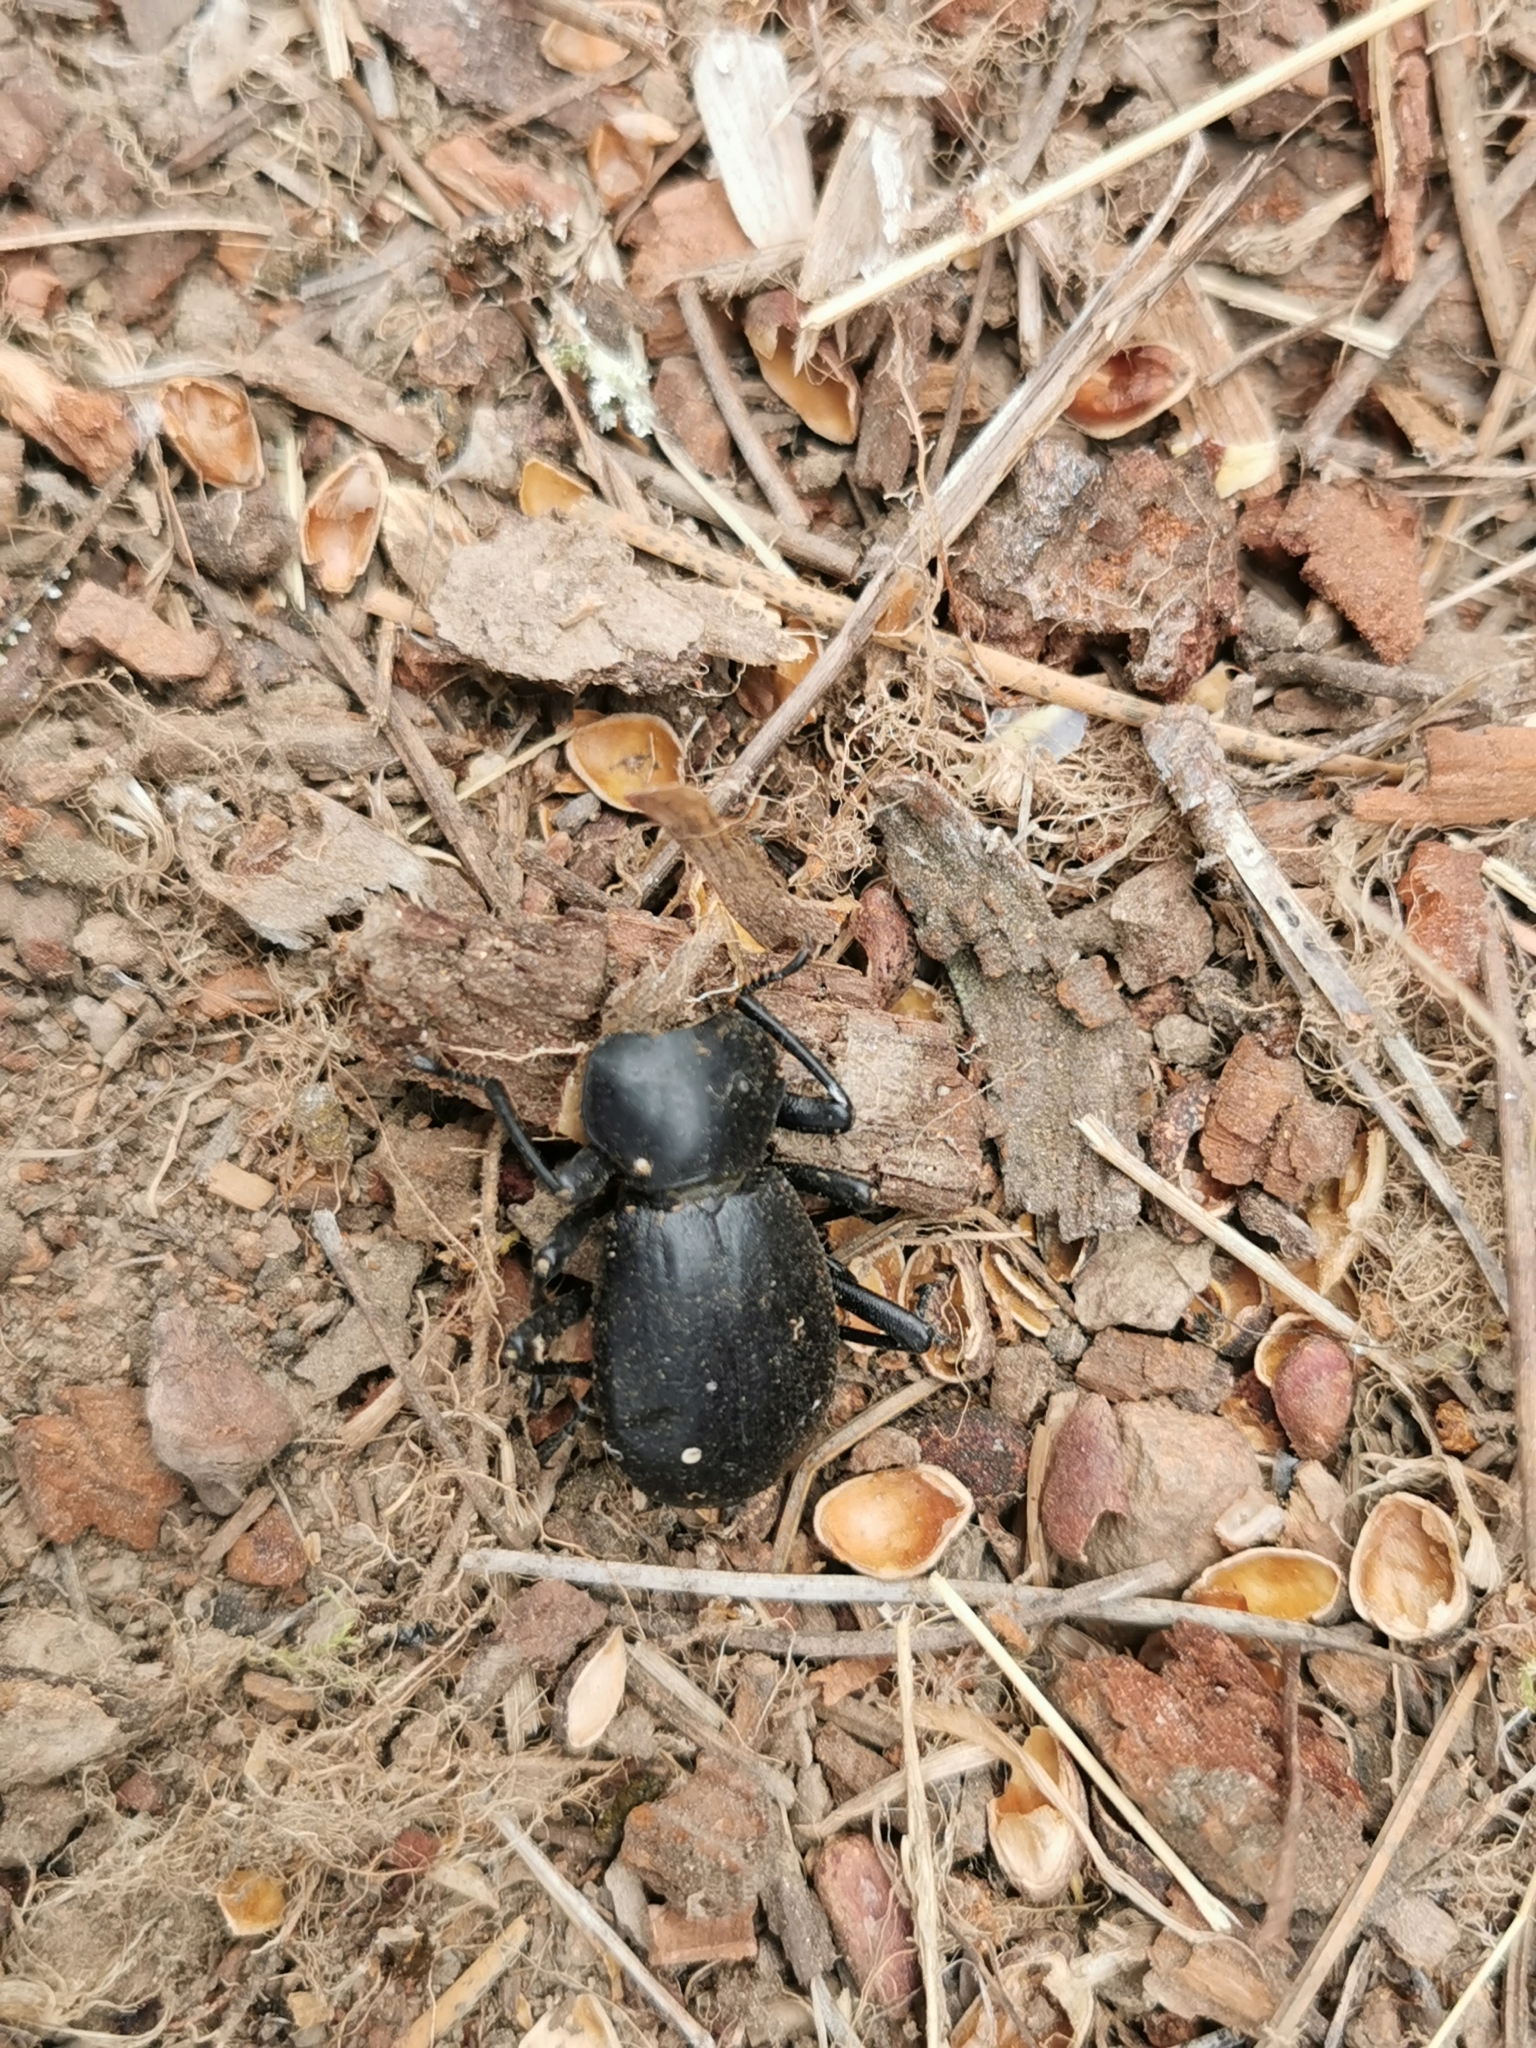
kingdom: Animalia
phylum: Arthropoda
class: Insecta
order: Coleoptera
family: Tenebrionidae
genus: Coelocnemis
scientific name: Coelocnemis dilaticollis
